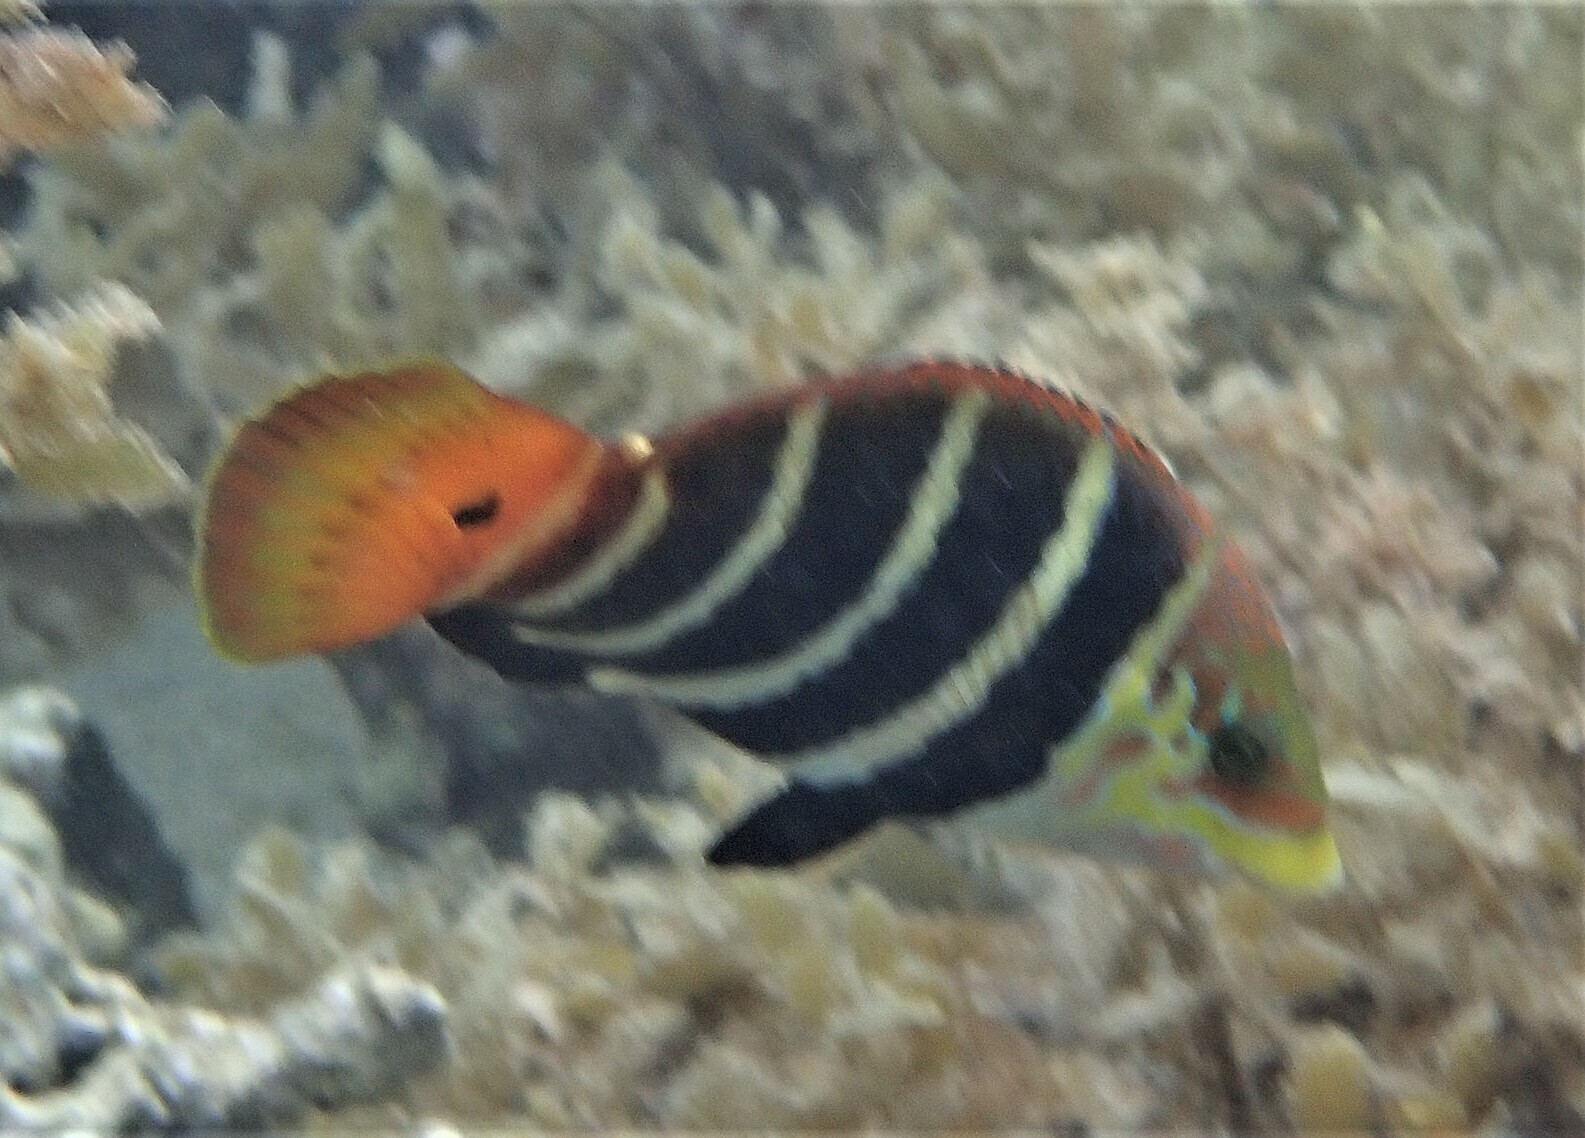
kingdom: Animalia
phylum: Chordata
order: Perciformes
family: Labridae
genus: Hemigymnus
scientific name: Hemigymnus fasciatus
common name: Barred thicklip
